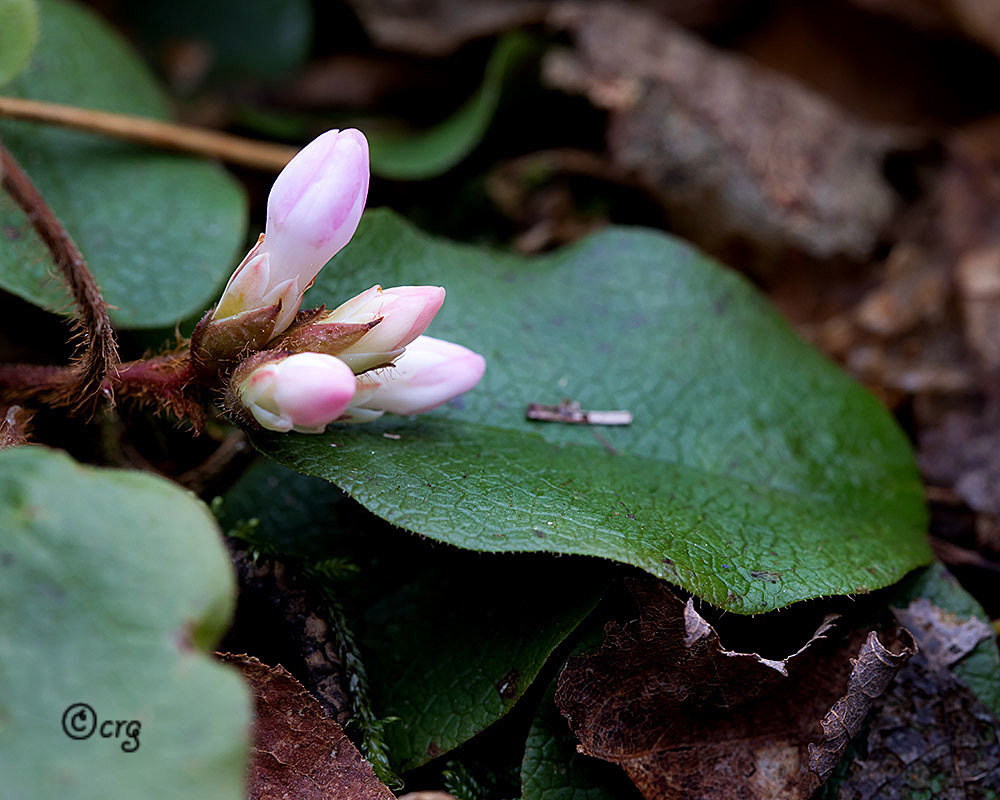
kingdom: Plantae
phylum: Tracheophyta
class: Magnoliopsida
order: Ericales
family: Ericaceae
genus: Epigaea
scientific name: Epigaea repens
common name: Gravelroot
